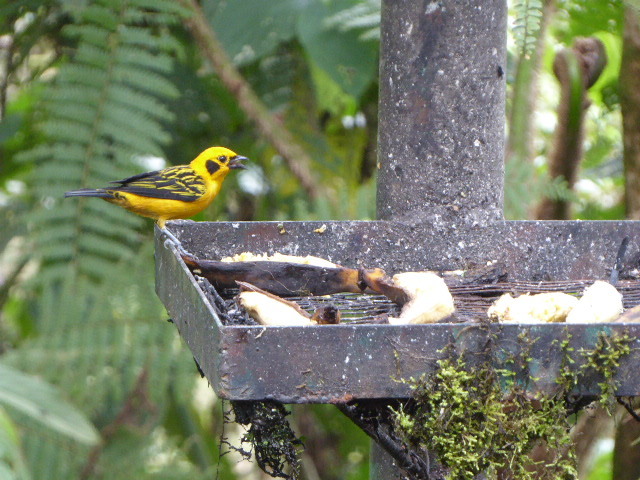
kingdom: Animalia
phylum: Chordata
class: Aves
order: Passeriformes
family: Thraupidae
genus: Tangara
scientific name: Tangara arthus
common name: Golden tanager
